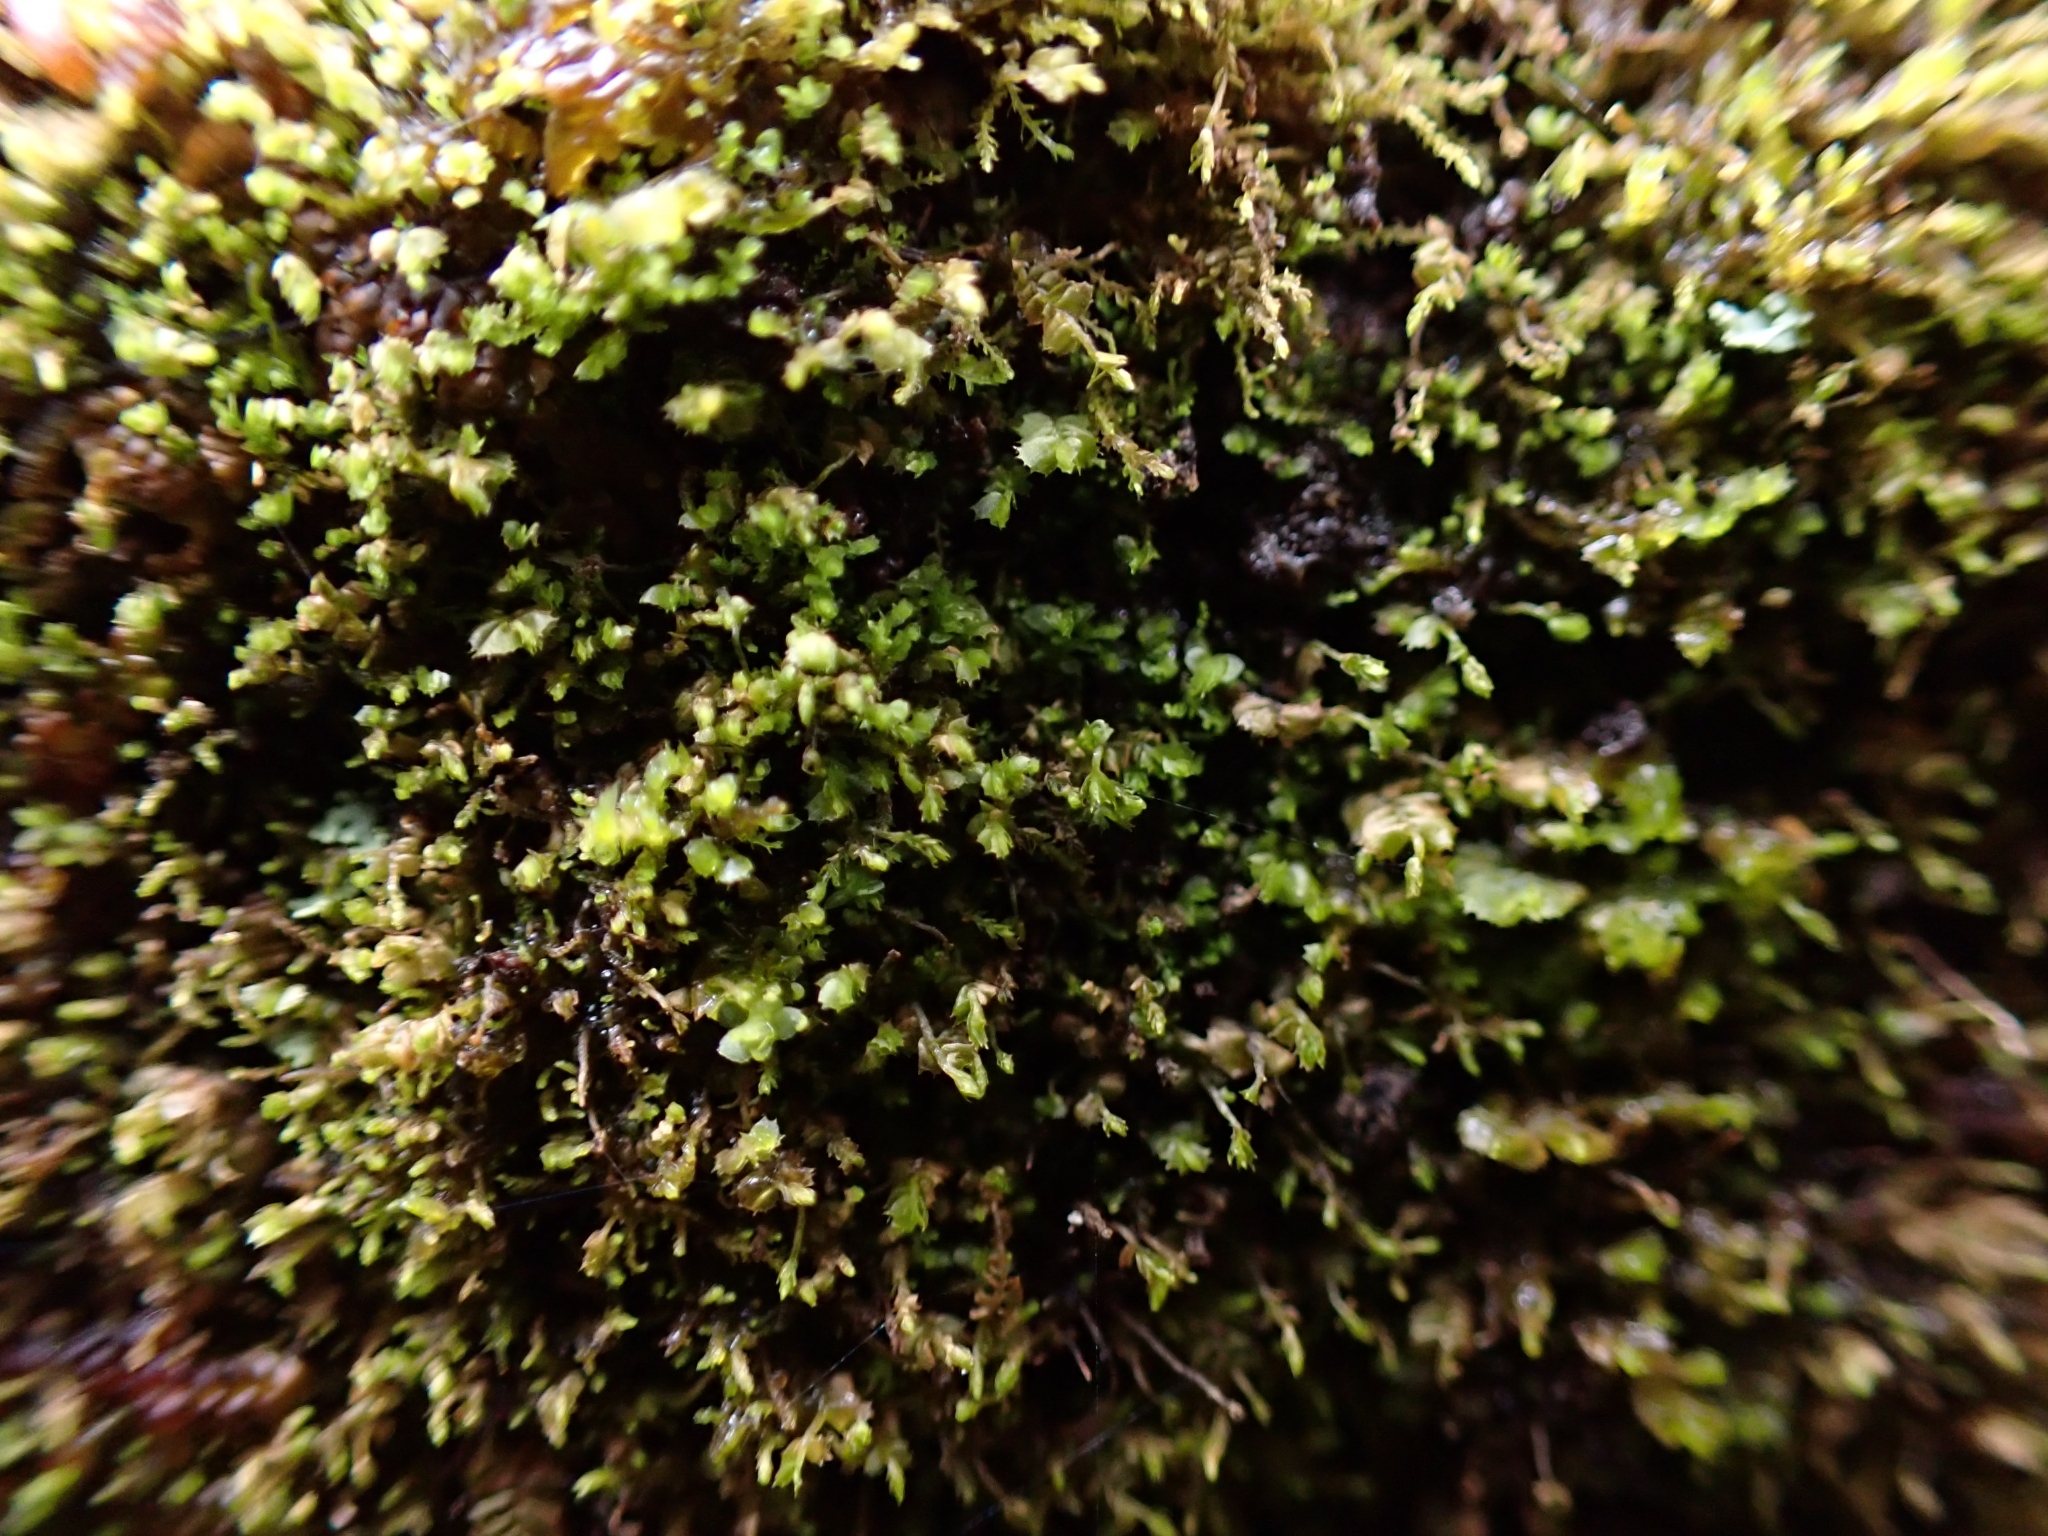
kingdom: Plantae
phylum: Marchantiophyta
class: Jungermanniopsida
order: Porellales
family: Lejeuneaceae
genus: Microlejeunea
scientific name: Microlejeunea ulicina
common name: Fairy beads
